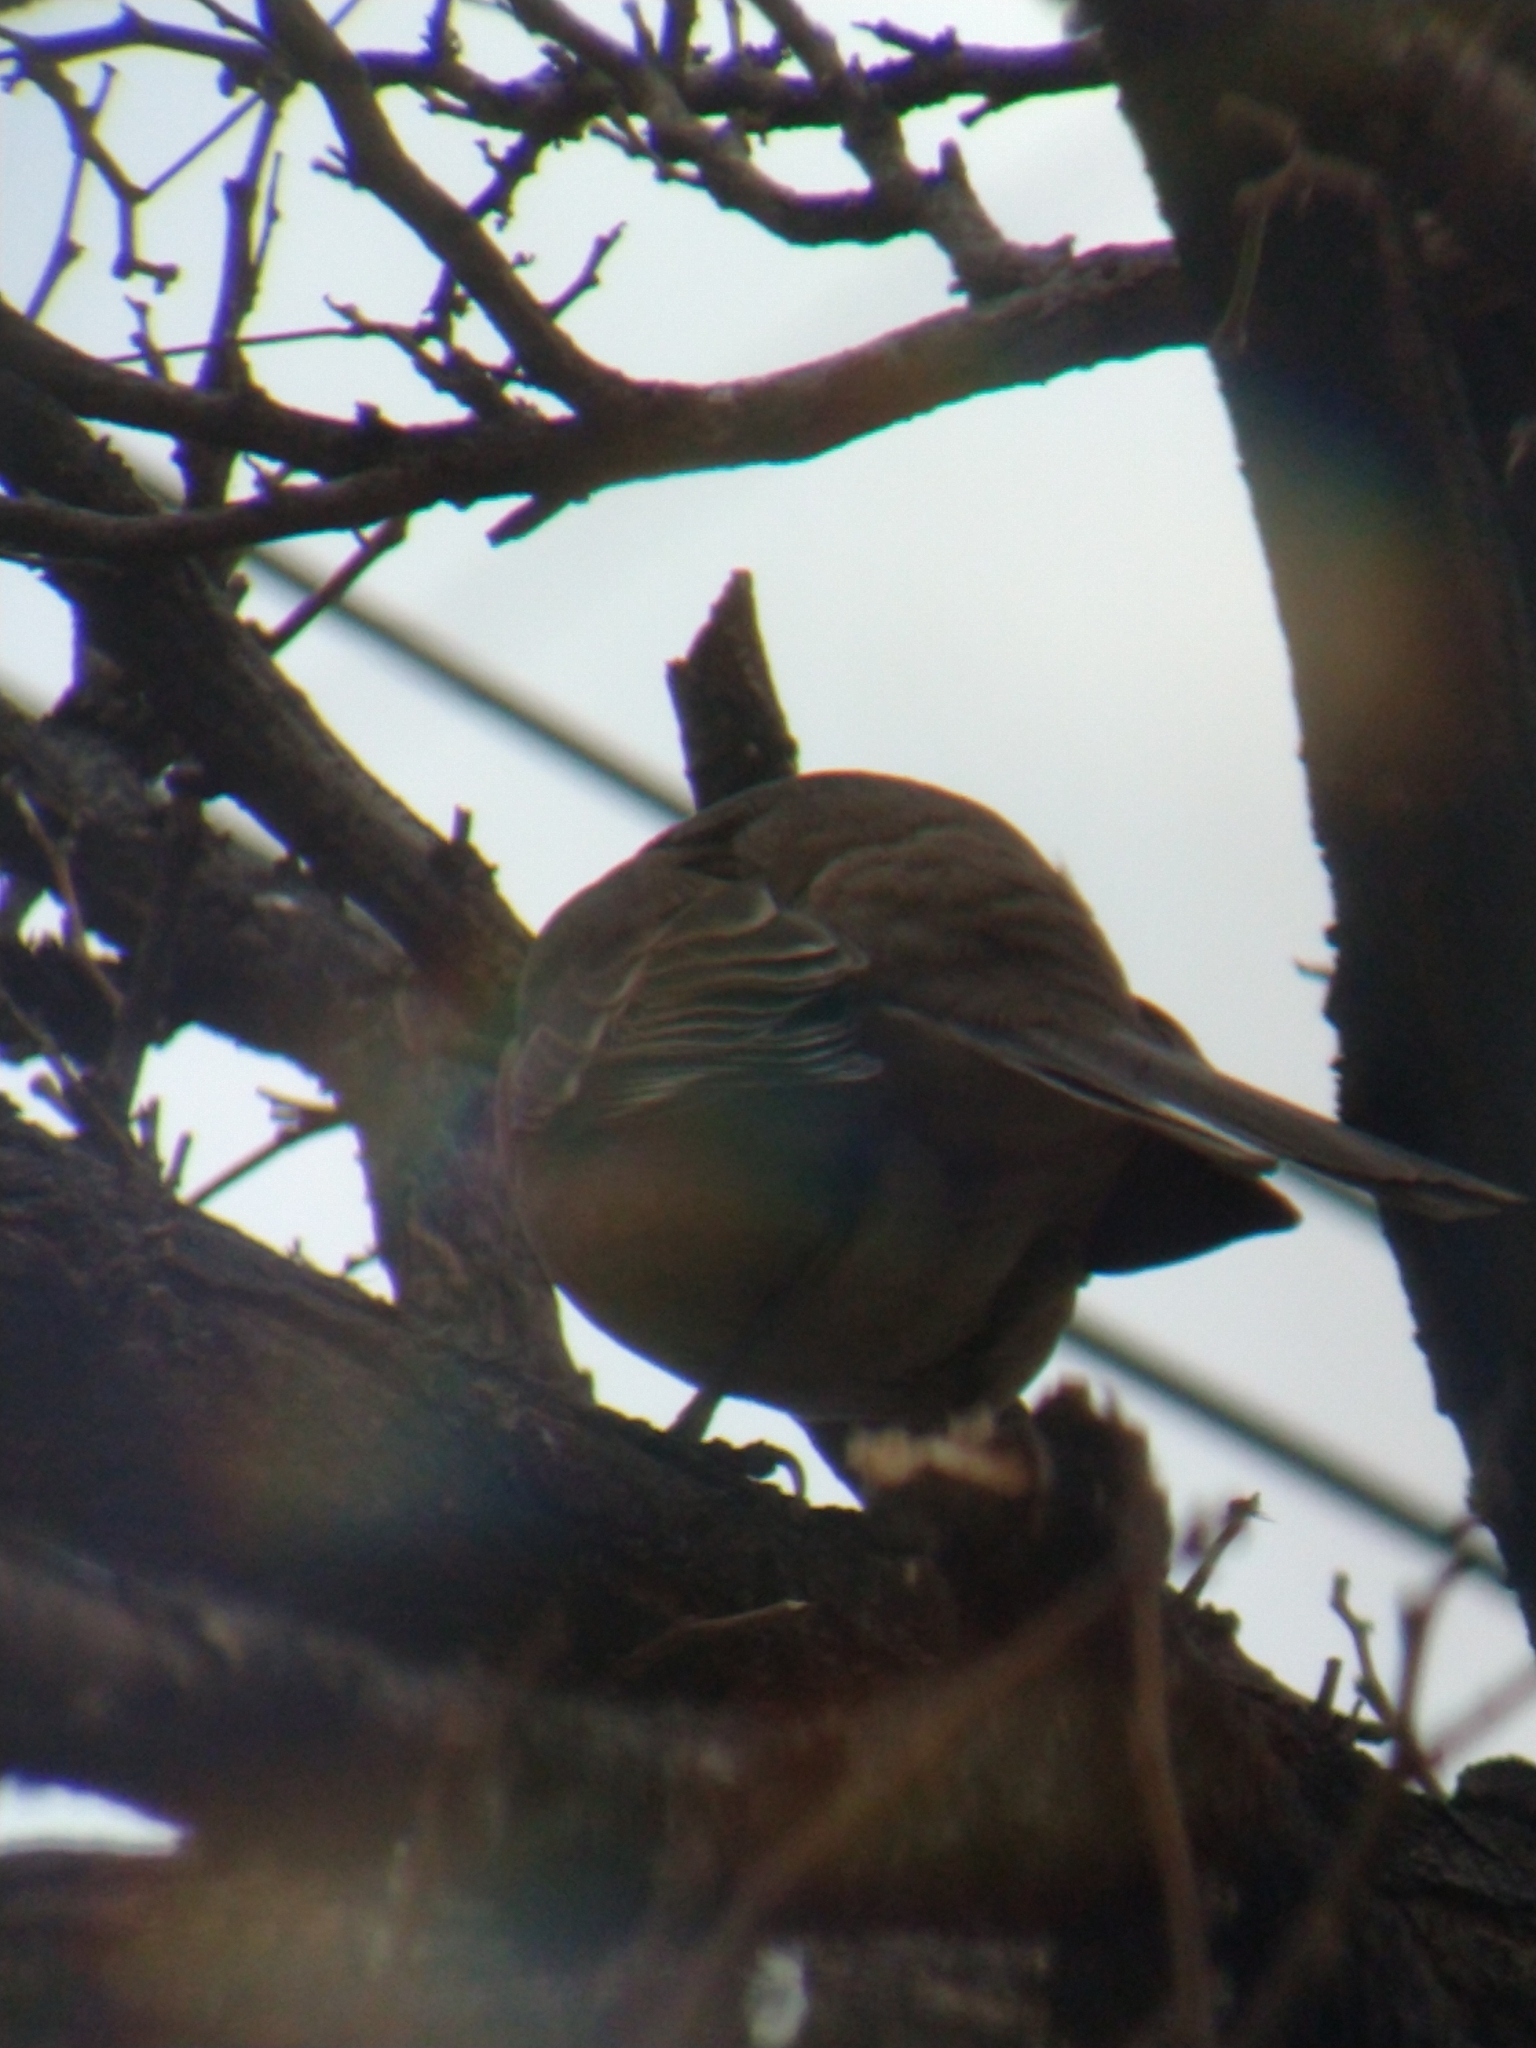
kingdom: Animalia
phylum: Chordata
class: Aves
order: Passeriformes
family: Mimidae
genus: Mimus
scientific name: Mimus saturninus
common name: Chalk-browed mockingbird
